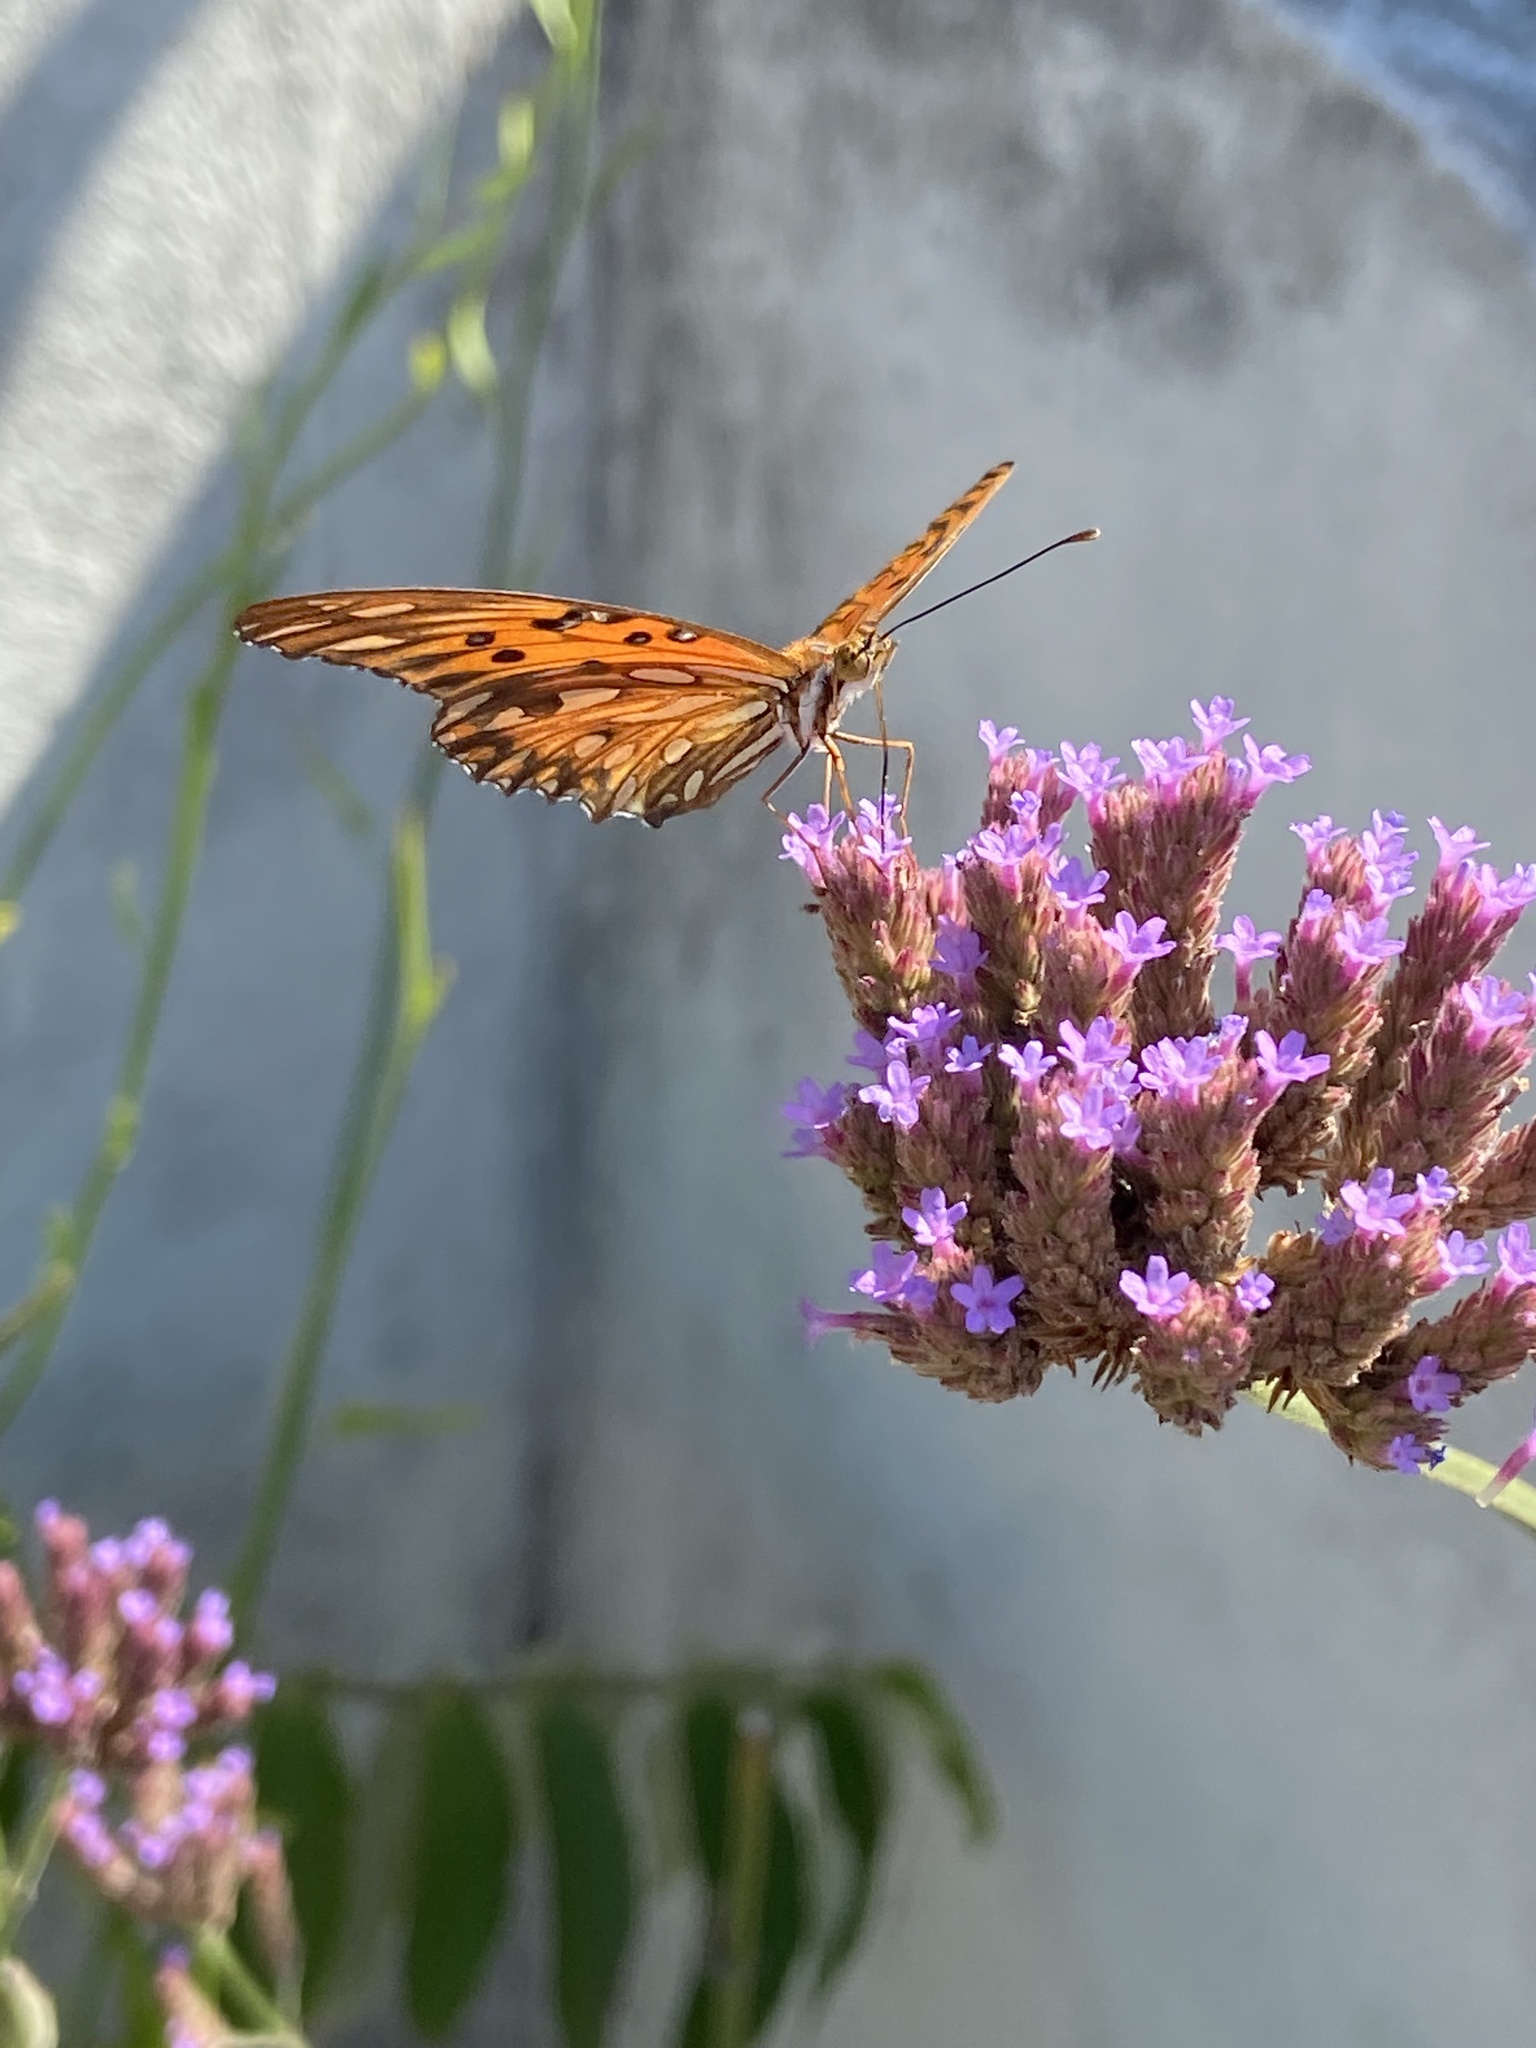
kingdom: Animalia
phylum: Arthropoda
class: Insecta
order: Lepidoptera
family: Nymphalidae
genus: Dione
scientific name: Dione vanillae
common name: Gulf fritillary
